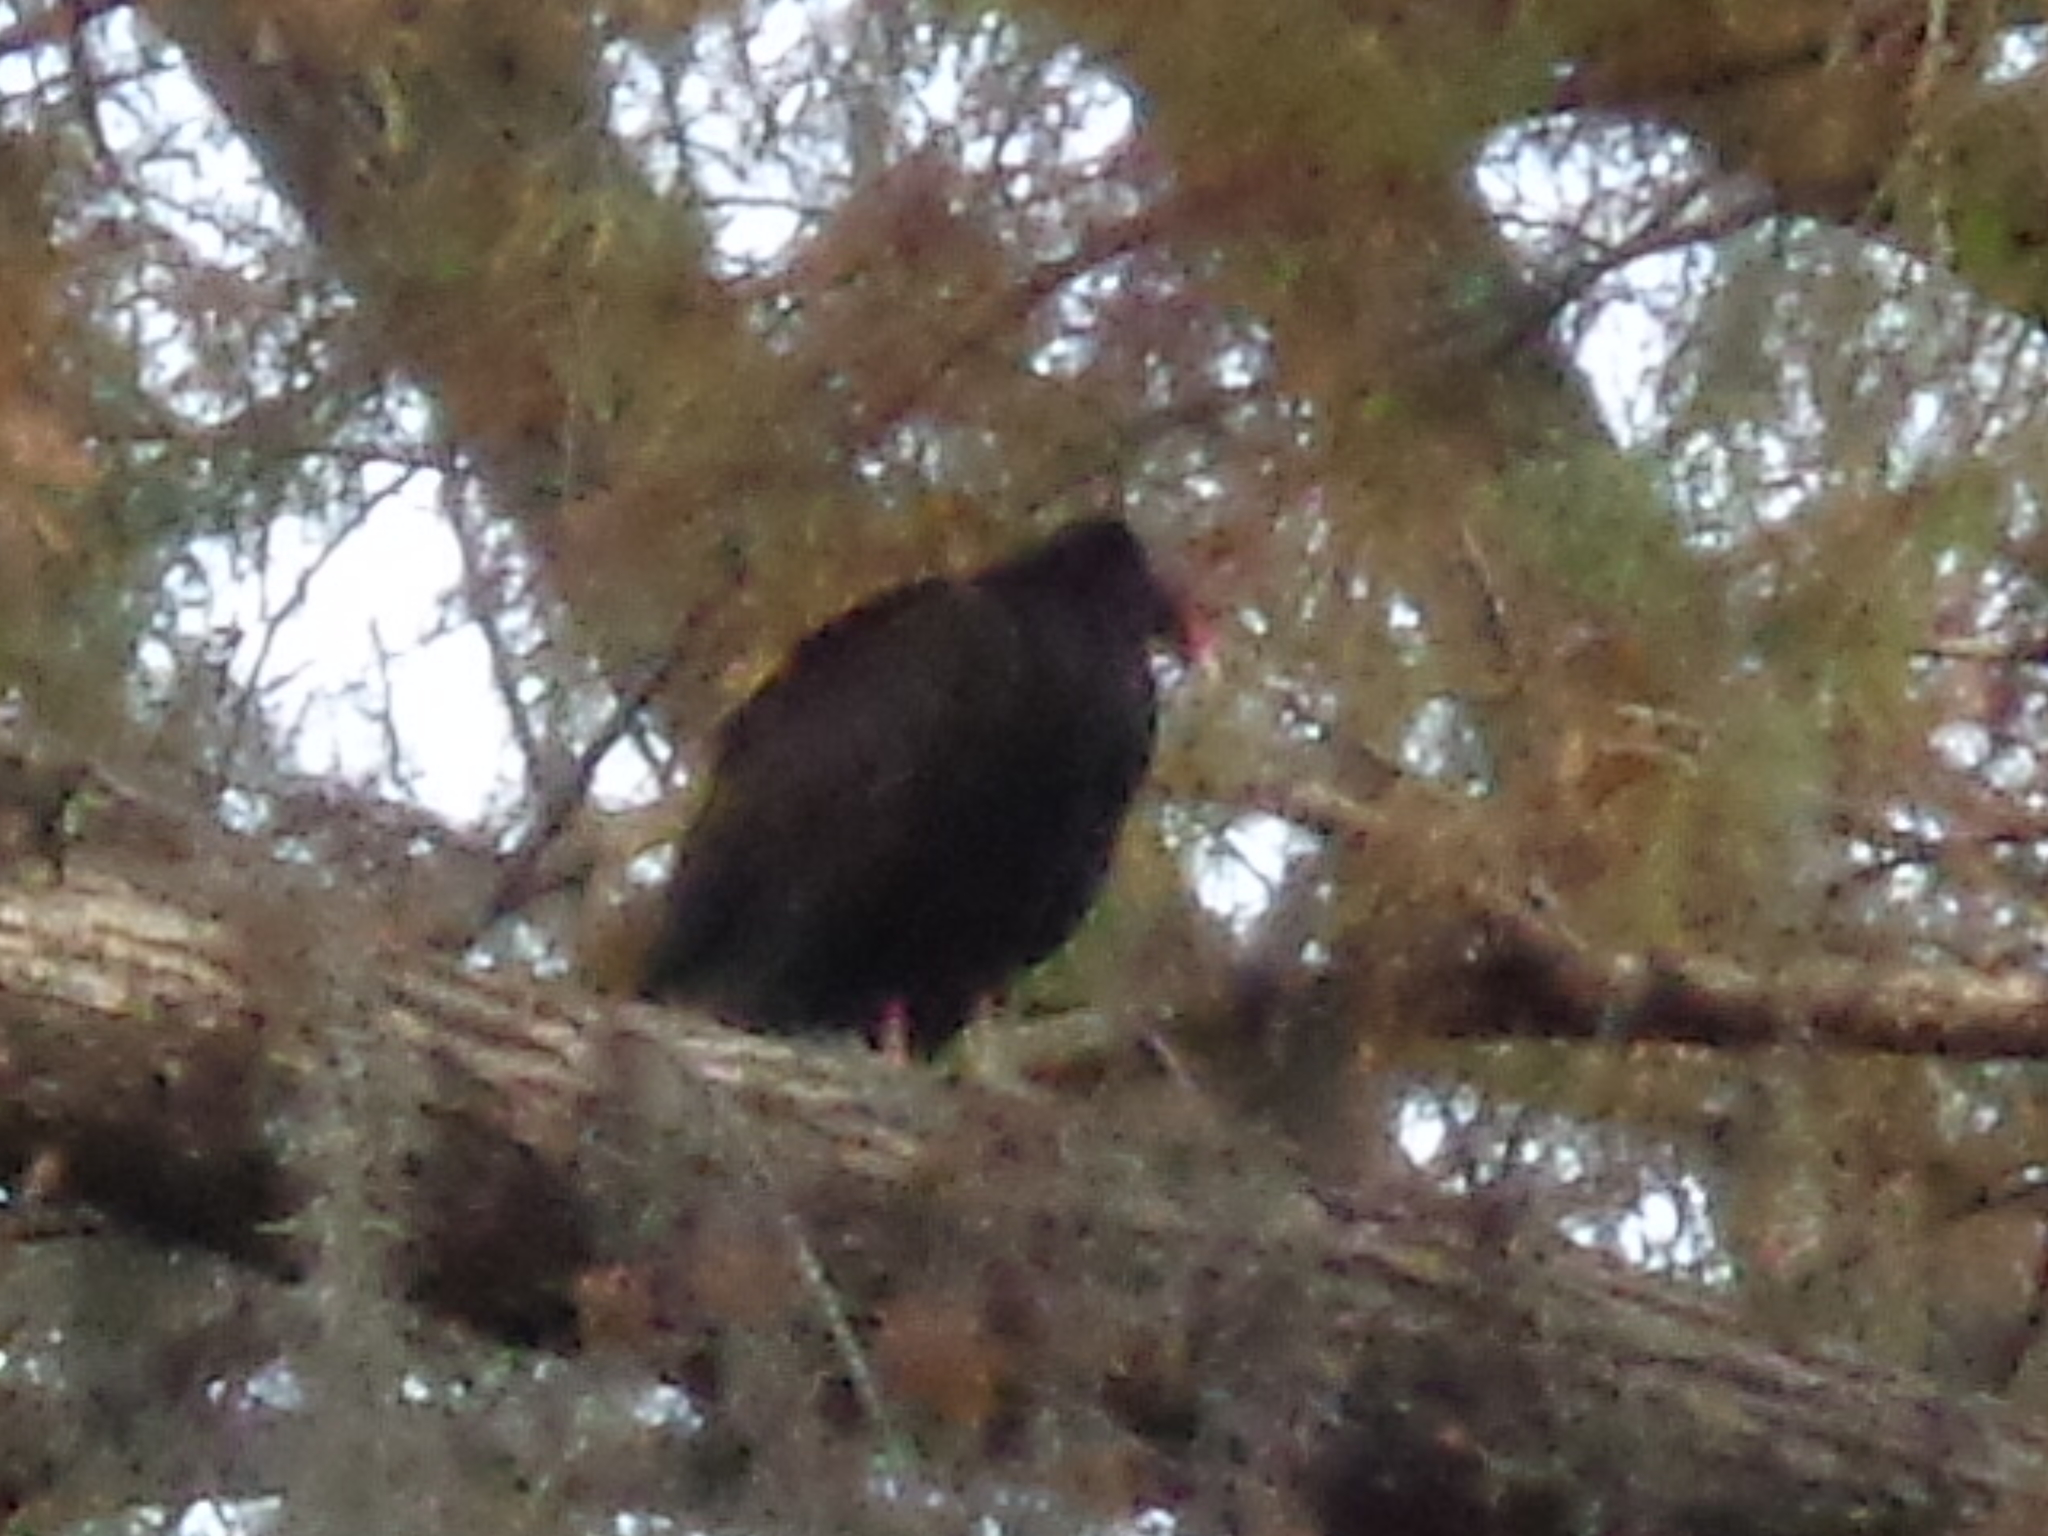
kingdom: Animalia
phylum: Chordata
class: Aves
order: Accipitriformes
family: Cathartidae
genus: Cathartes
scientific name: Cathartes aura
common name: Turkey vulture
